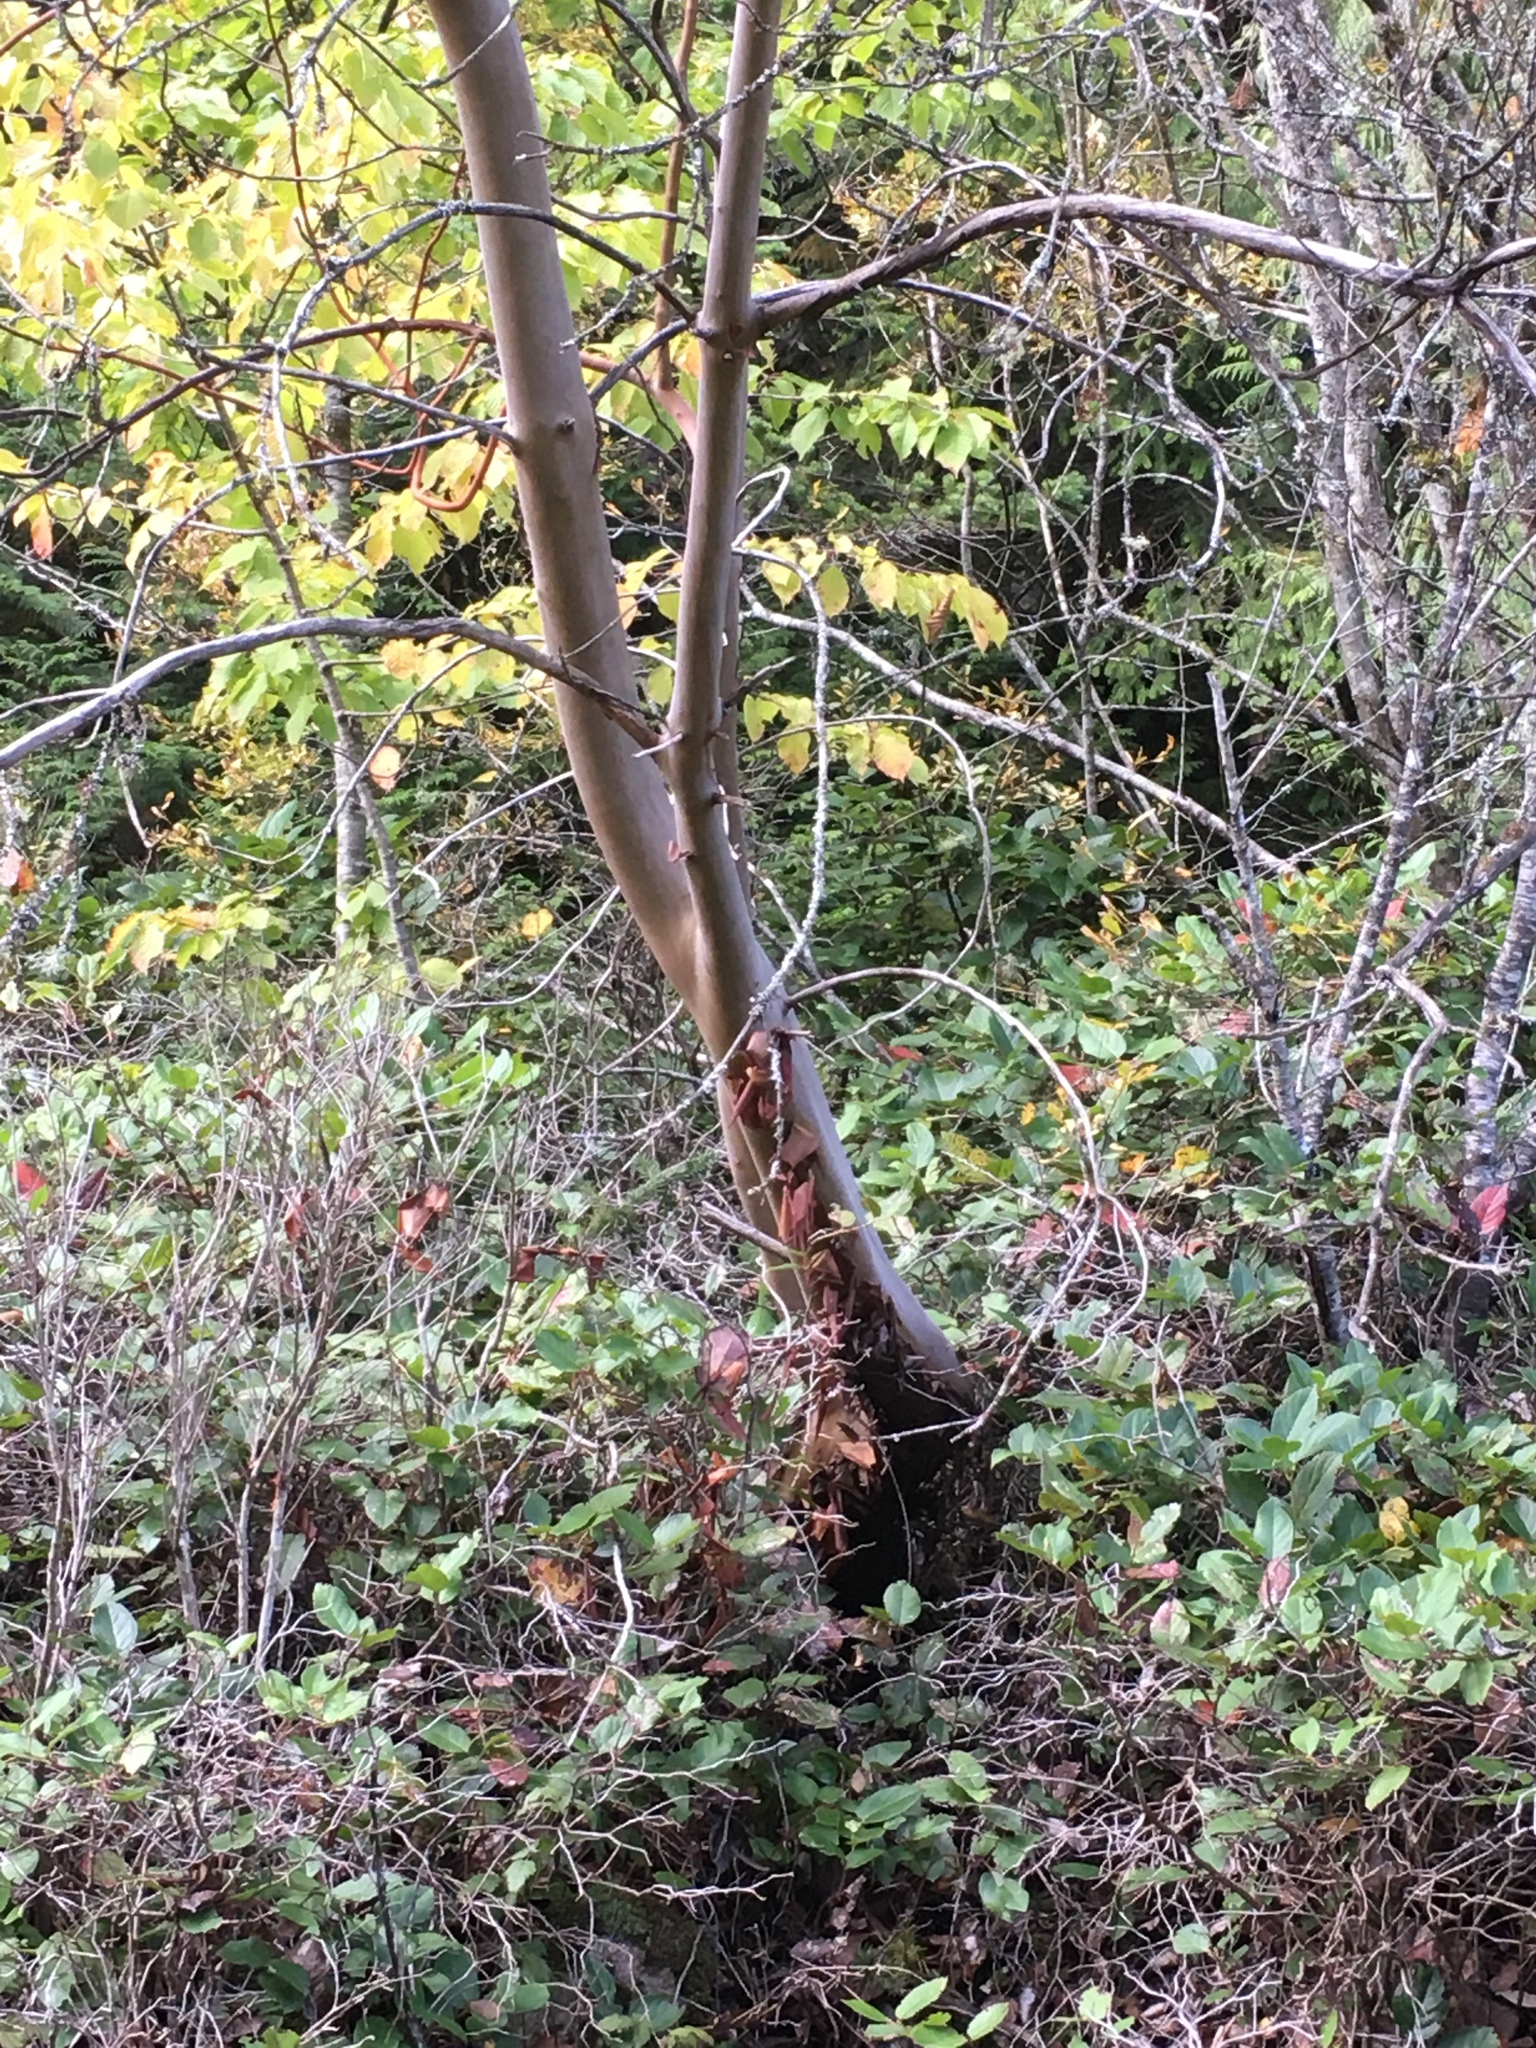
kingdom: Plantae
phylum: Tracheophyta
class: Magnoliopsida
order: Ericales
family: Ericaceae
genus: Arbutus
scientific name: Arbutus menziesii
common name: Pacific madrone
